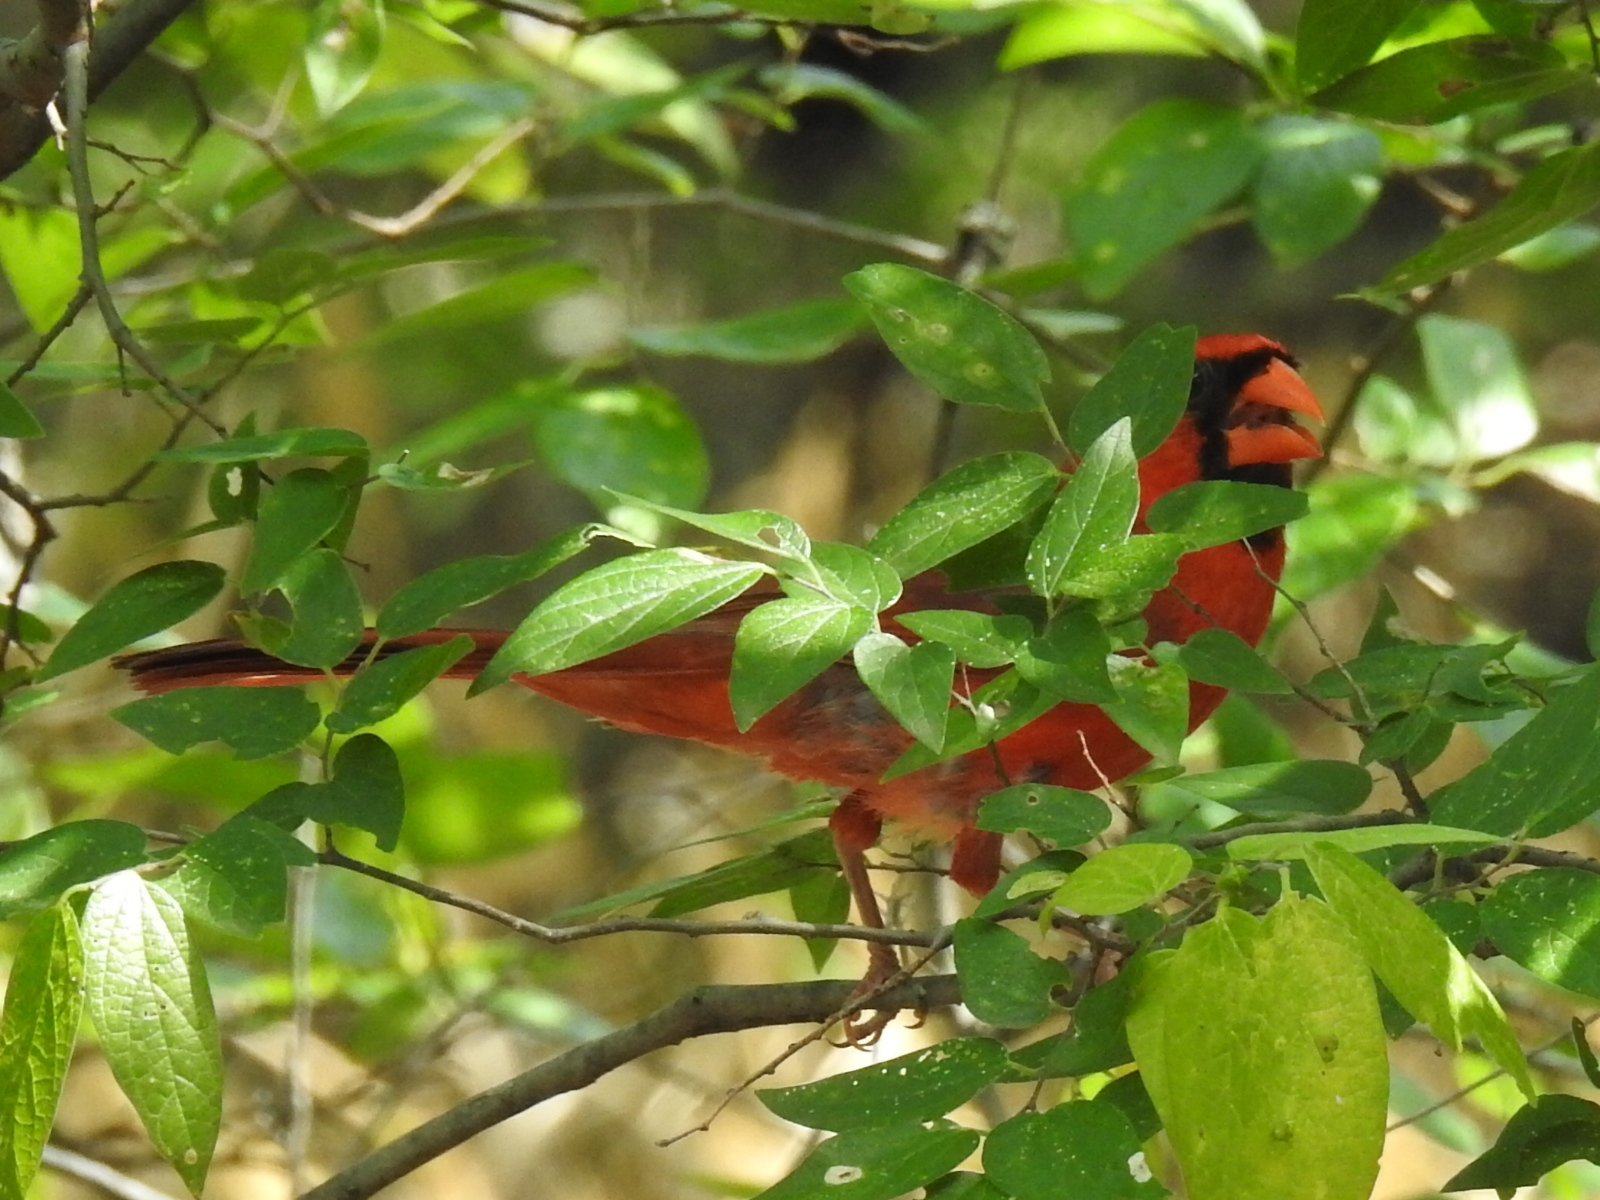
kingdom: Animalia
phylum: Chordata
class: Aves
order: Passeriformes
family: Cardinalidae
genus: Cardinalis
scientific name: Cardinalis cardinalis
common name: Northern cardinal
